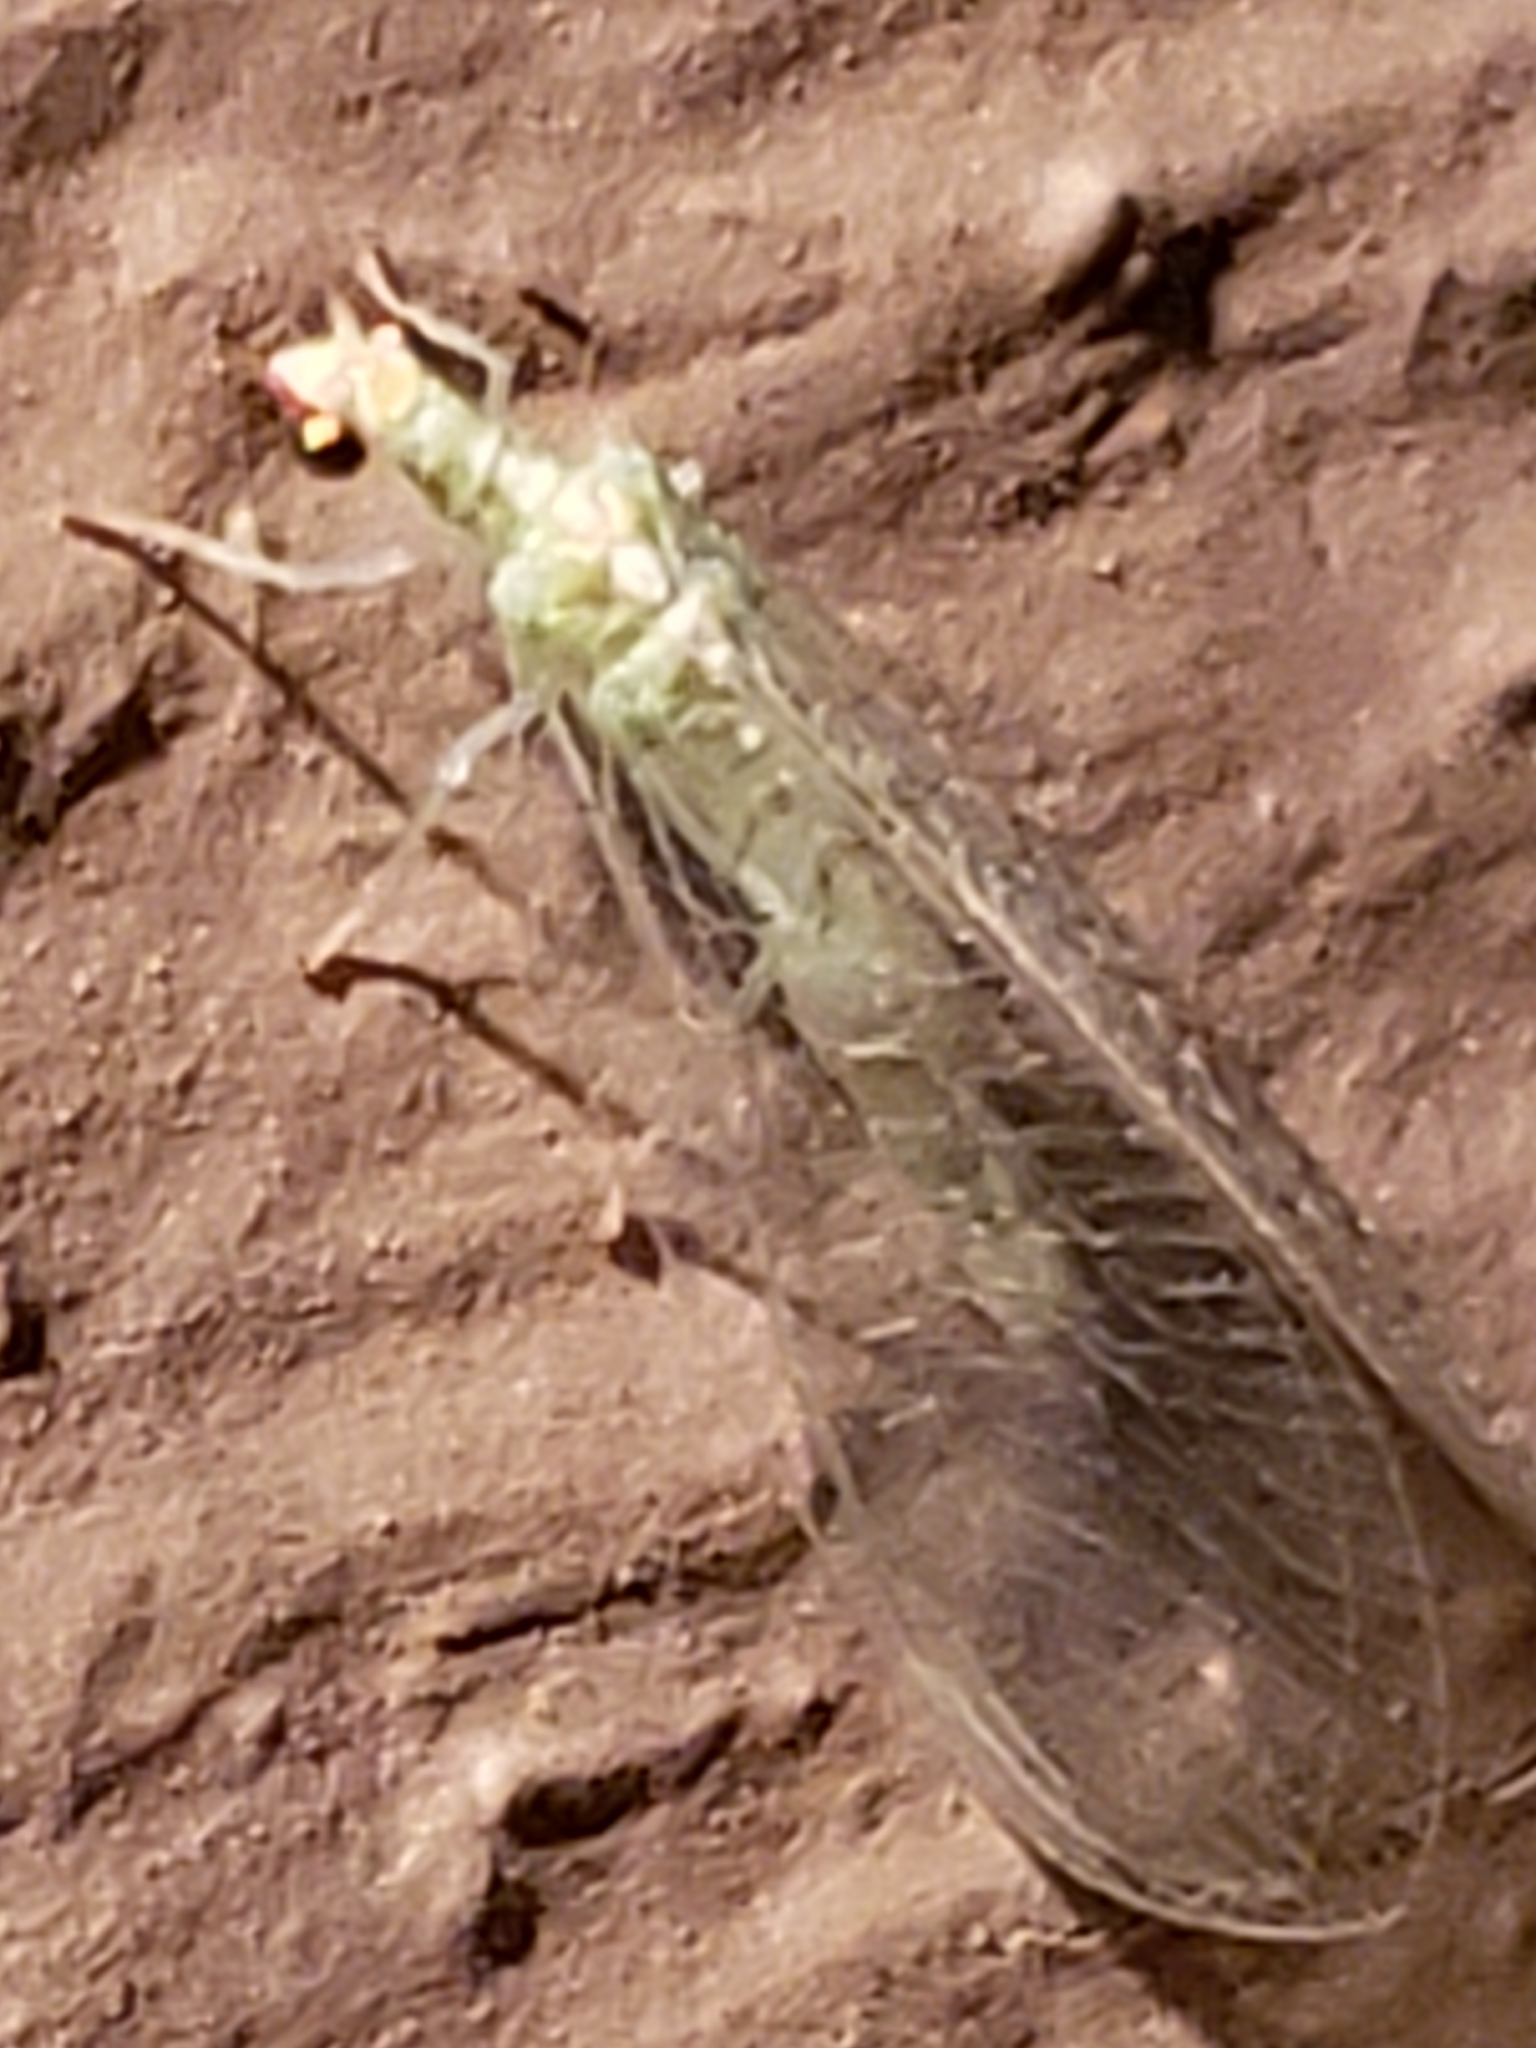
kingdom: Animalia
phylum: Arthropoda
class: Insecta
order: Neuroptera
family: Chrysopidae
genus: Chrysoperla
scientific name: Chrysoperla rufilabris
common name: Red-lipped green lacewing
